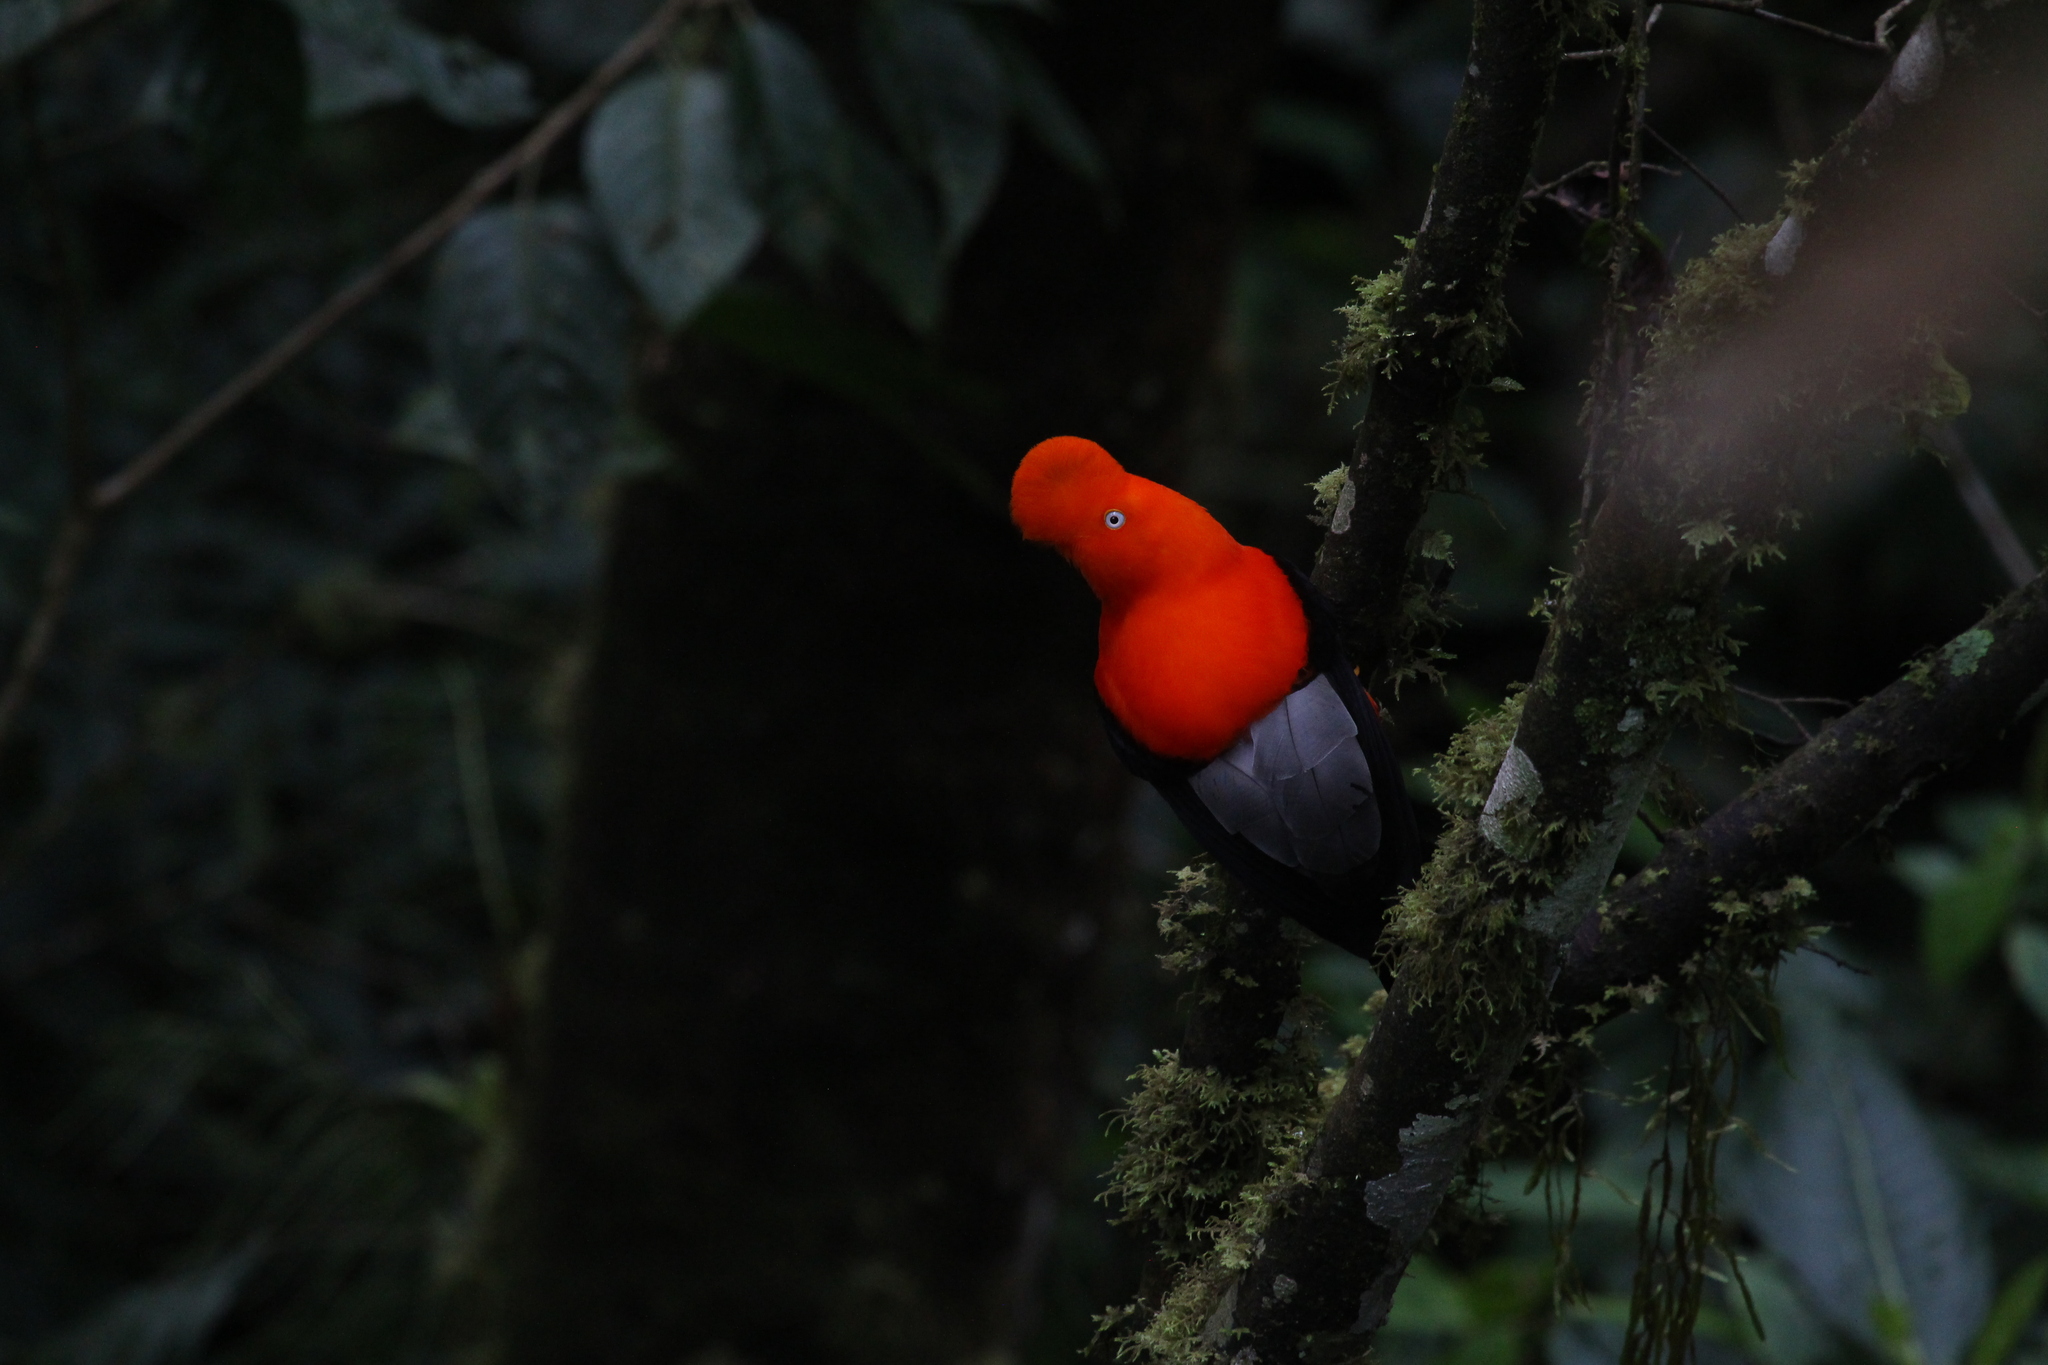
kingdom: Animalia
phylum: Chordata
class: Aves
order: Passeriformes
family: Cotingidae
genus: Rupicola
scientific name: Rupicola peruvianus
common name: Andean cock-of-the-rock
